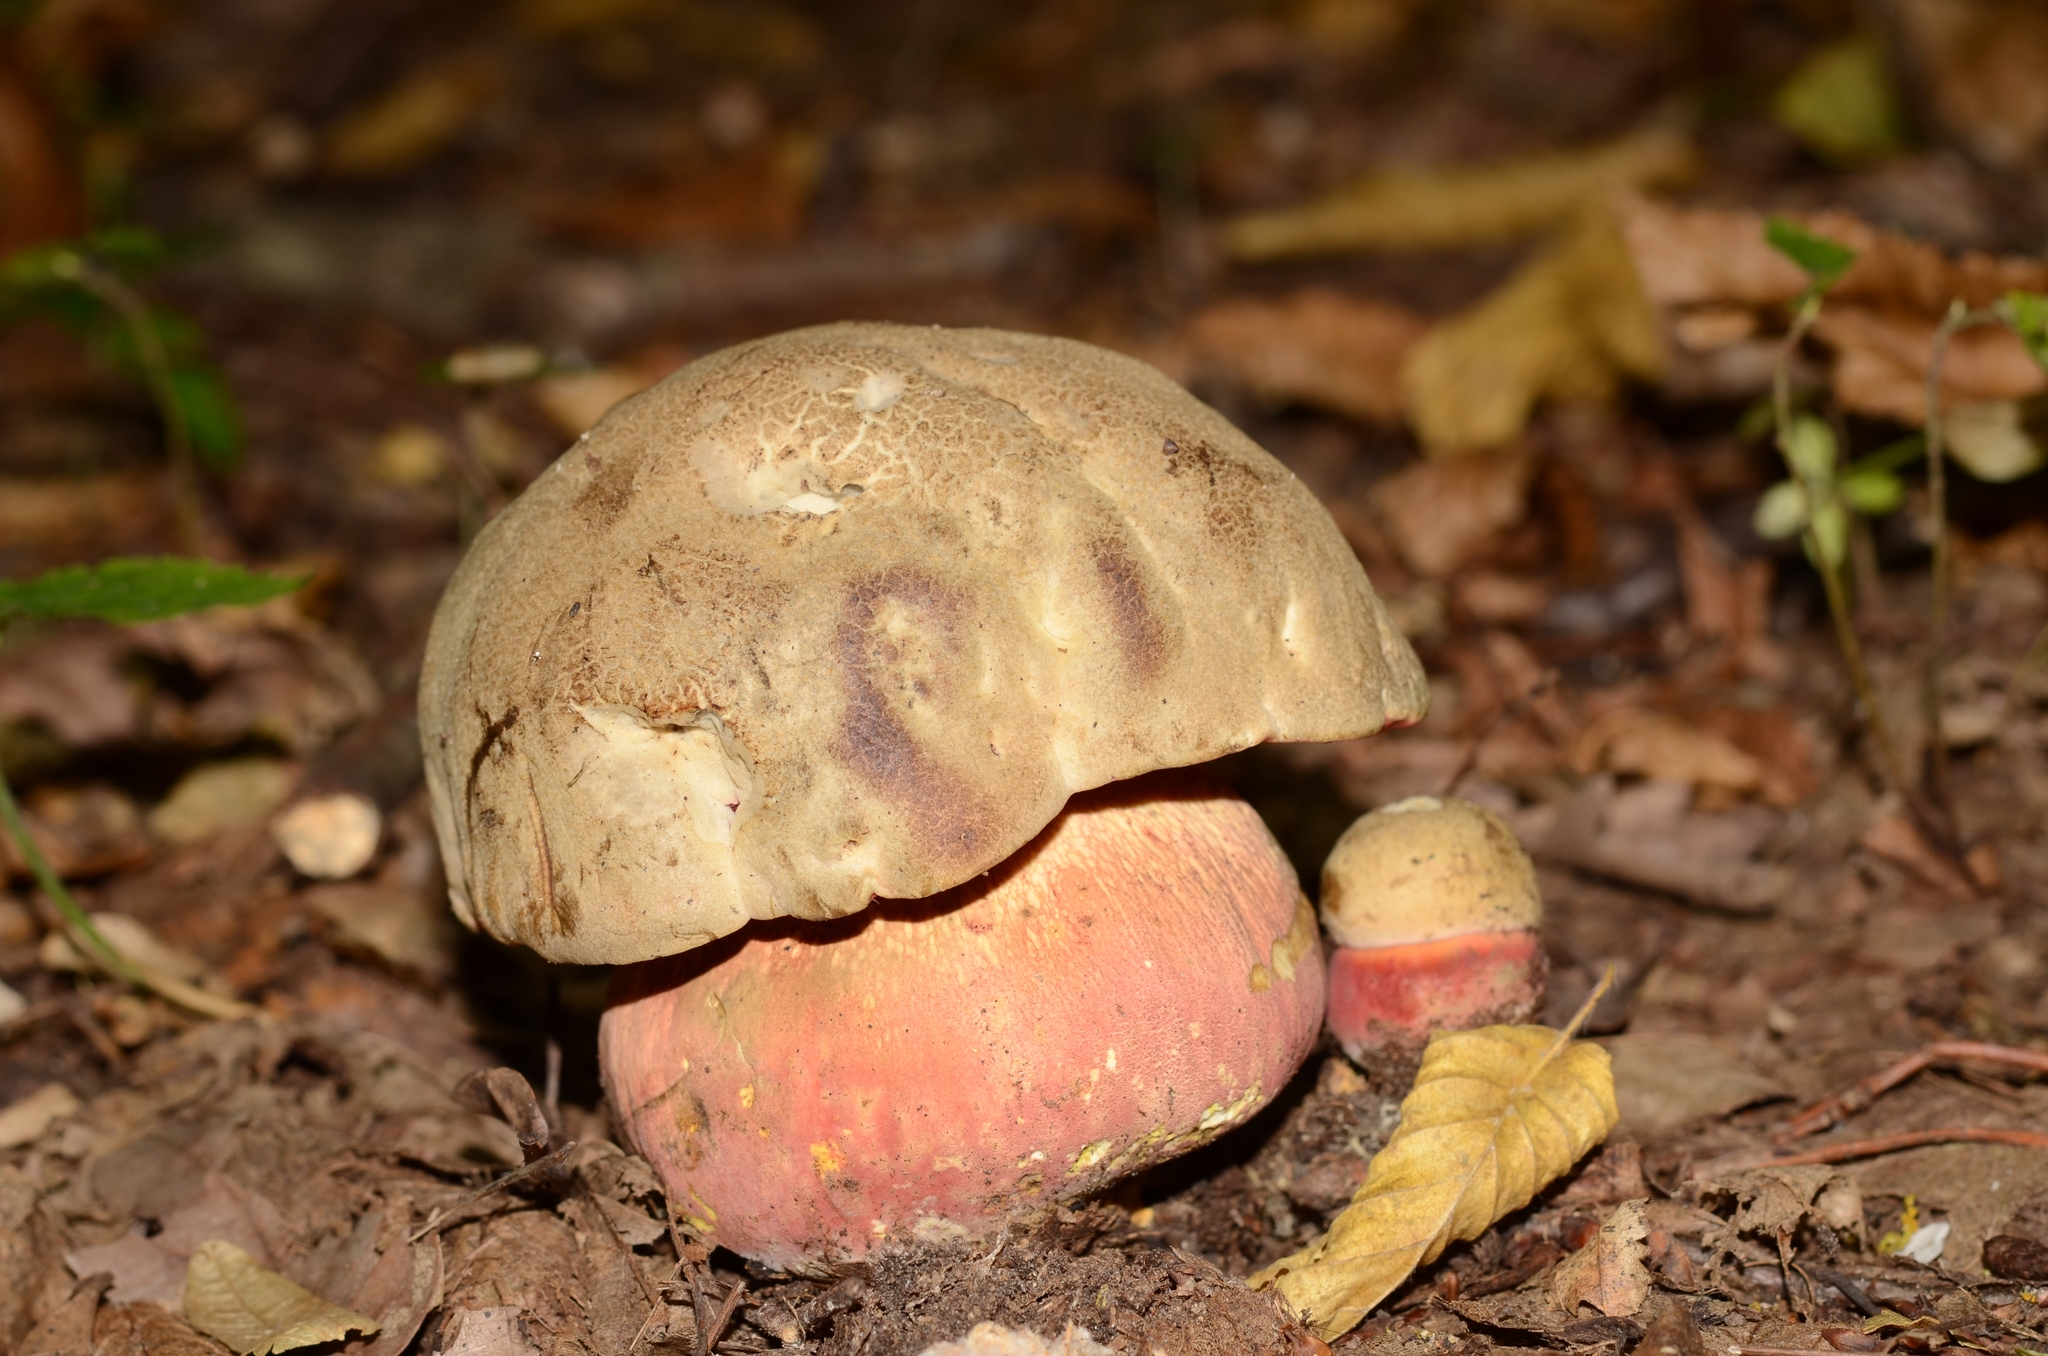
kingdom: Fungi
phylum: Basidiomycota
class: Agaricomycetes
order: Boletales
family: Boletaceae
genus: Rubroboletus
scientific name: Rubroboletus satanas
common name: Devil's bolete
